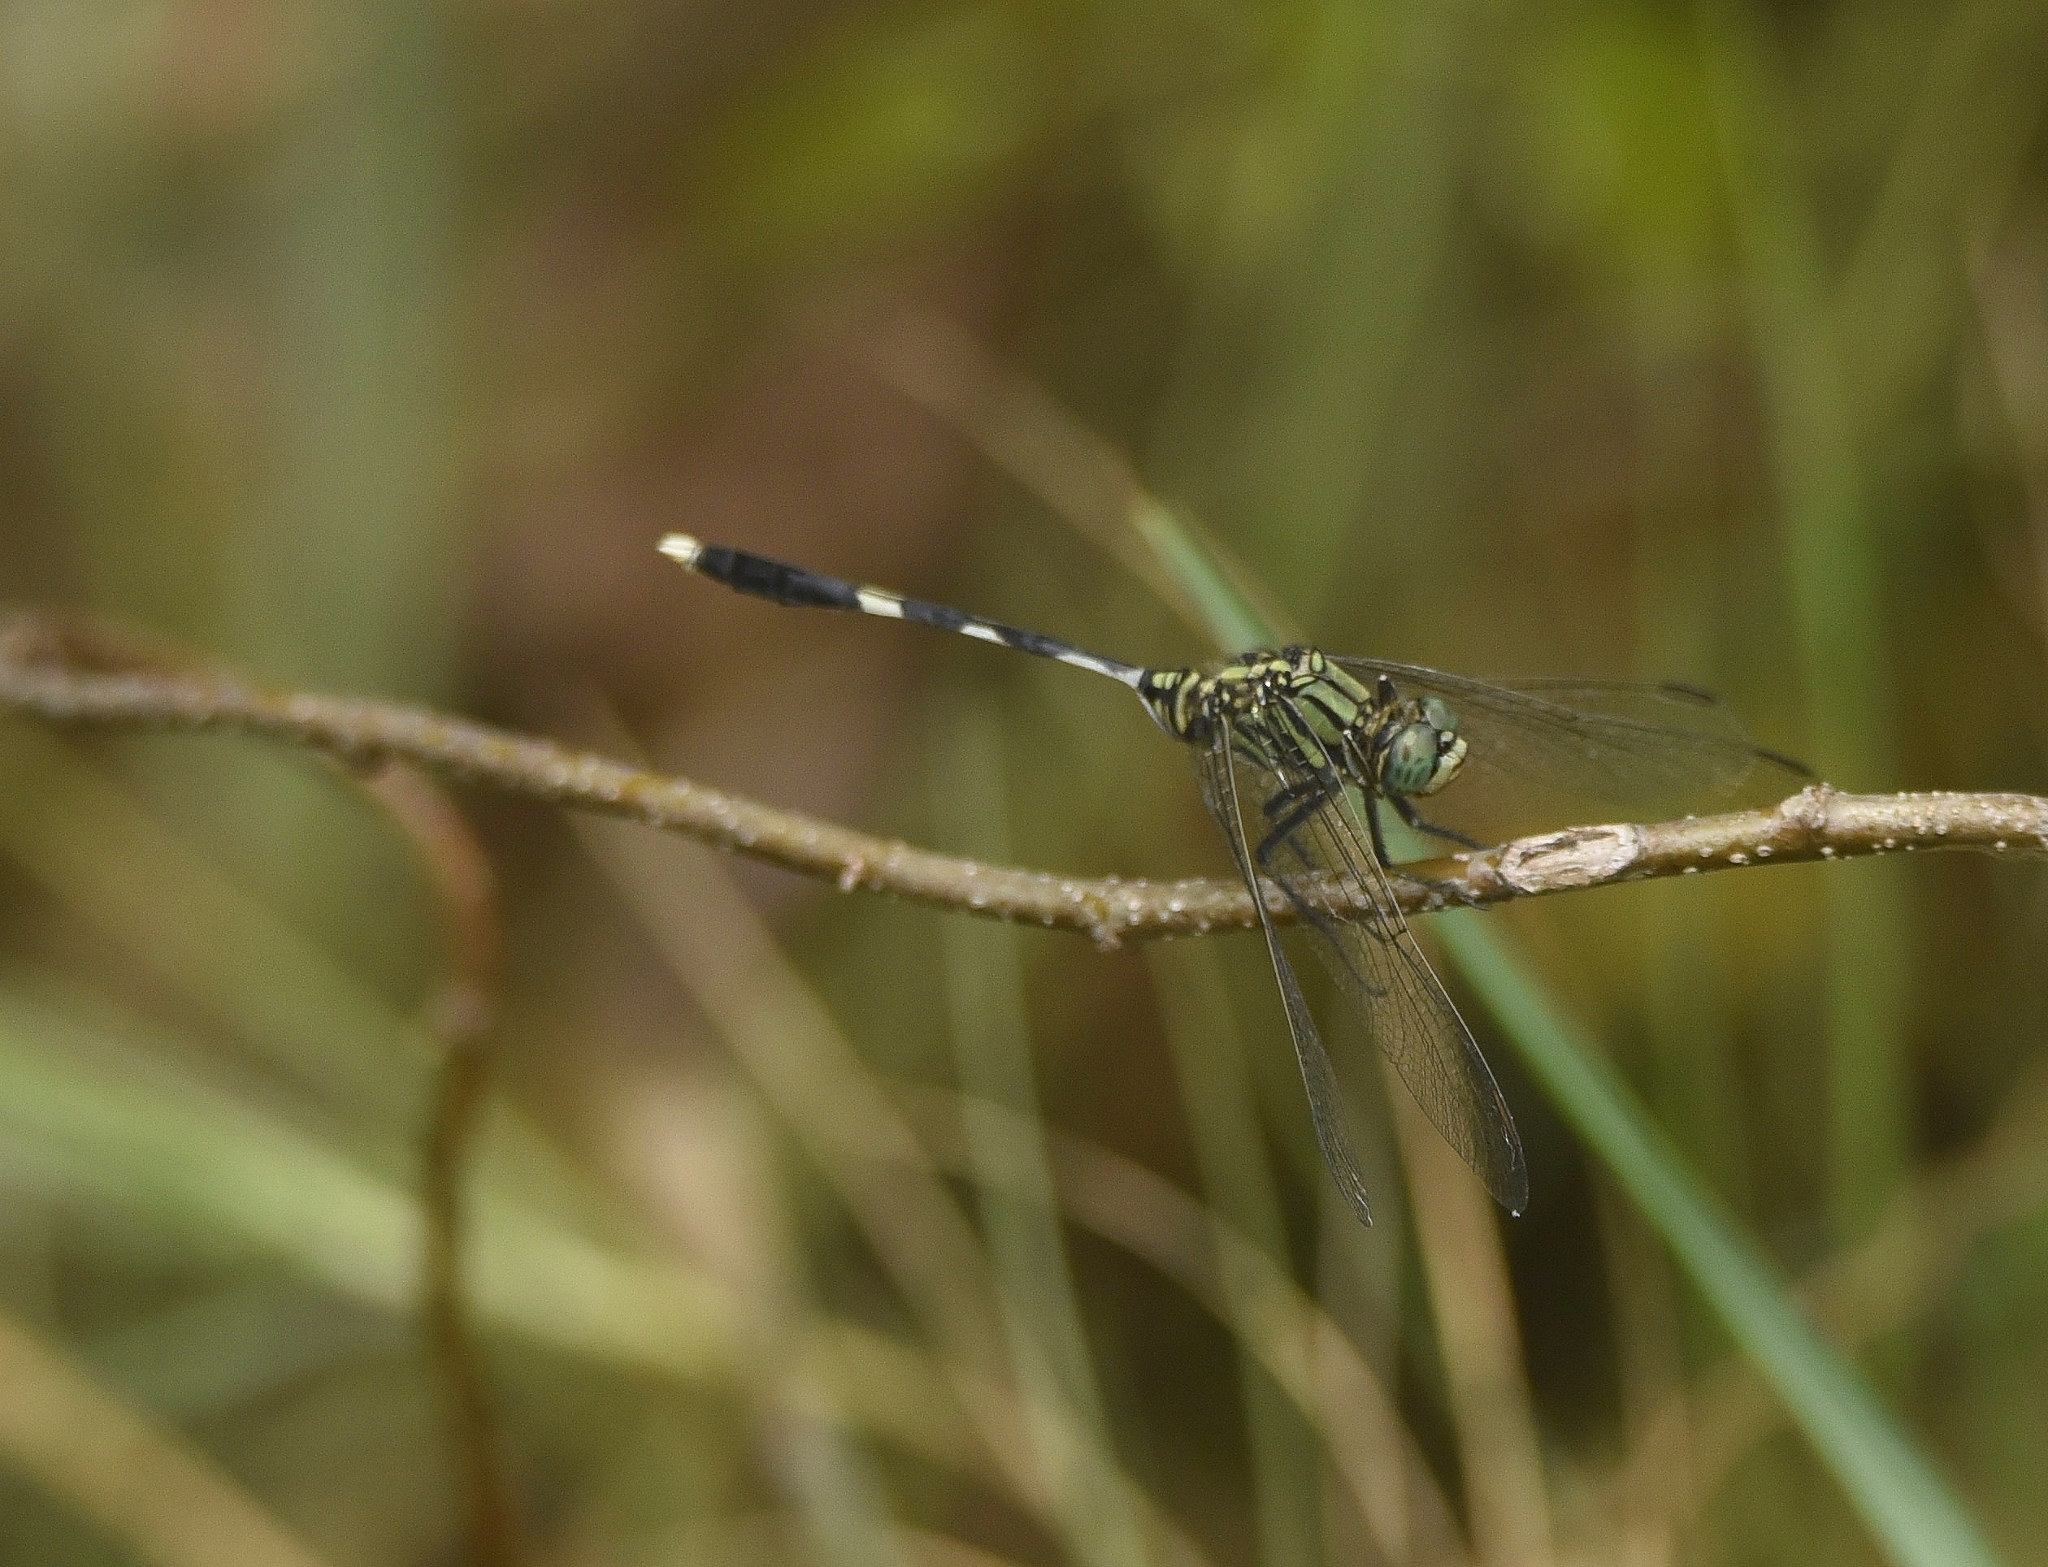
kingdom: Animalia
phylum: Arthropoda
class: Insecta
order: Odonata
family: Libellulidae
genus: Orthetrum
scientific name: Orthetrum sabina
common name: Slender skimmer
